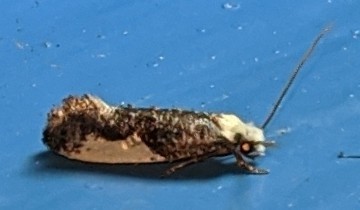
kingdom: Animalia
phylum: Arthropoda
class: Insecta
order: Lepidoptera
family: Tineidae
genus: Monopis
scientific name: Monopis monachella
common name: Moth
